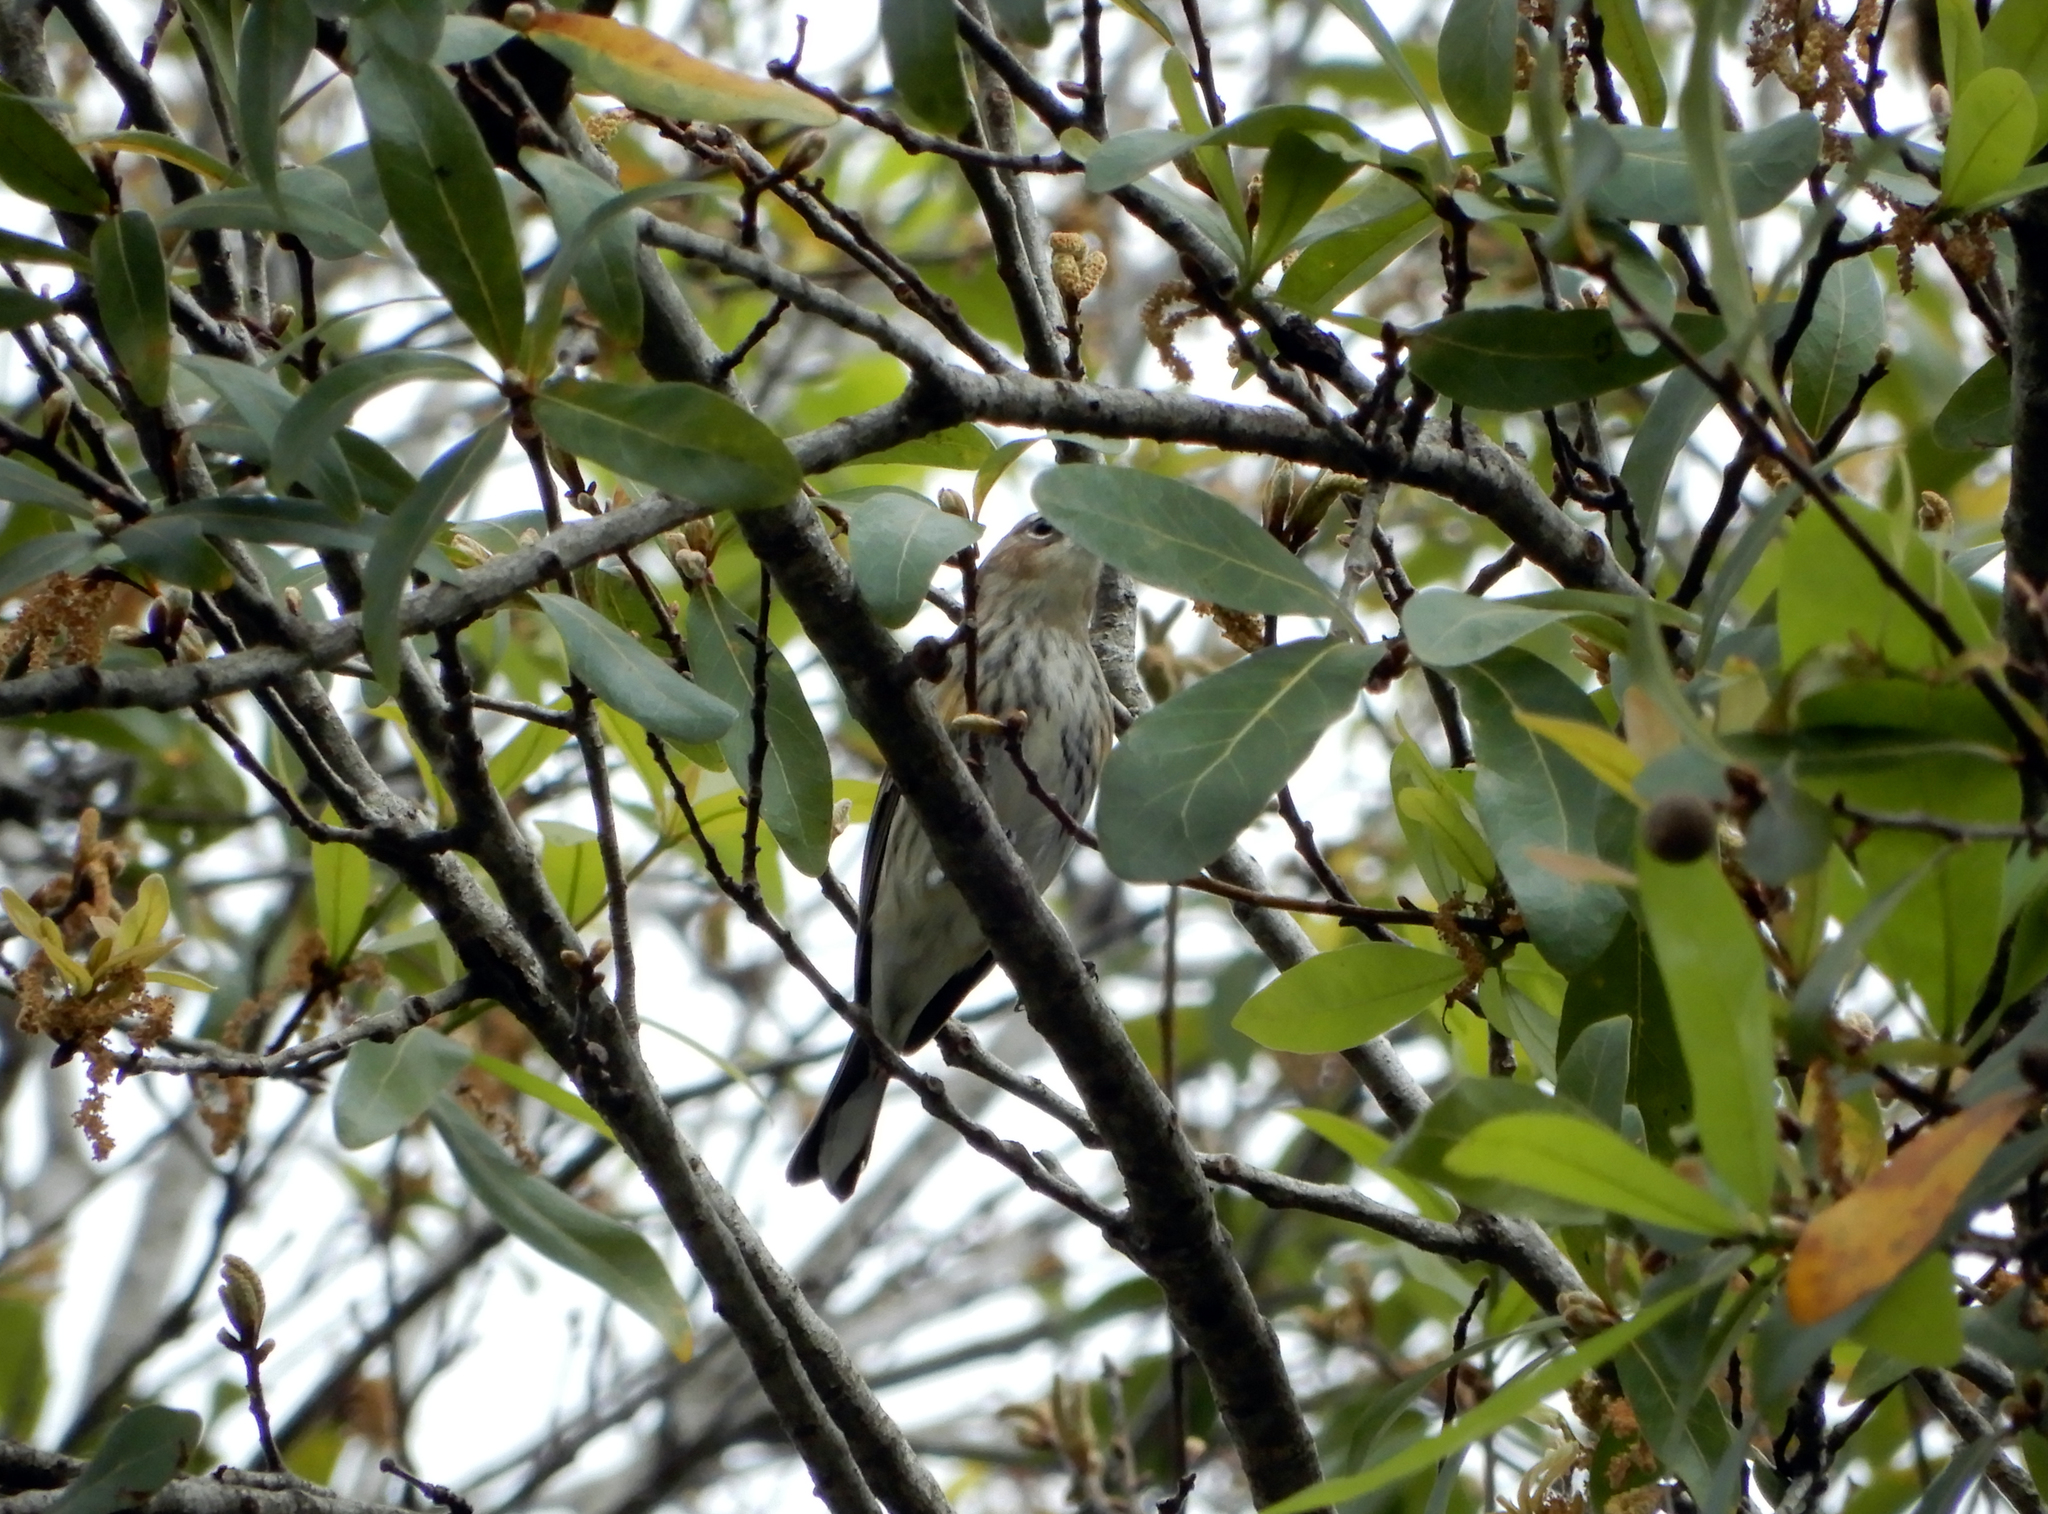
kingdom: Animalia
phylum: Chordata
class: Aves
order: Passeriformes
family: Parulidae
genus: Setophaga
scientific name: Setophaga coronata
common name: Myrtle warbler
